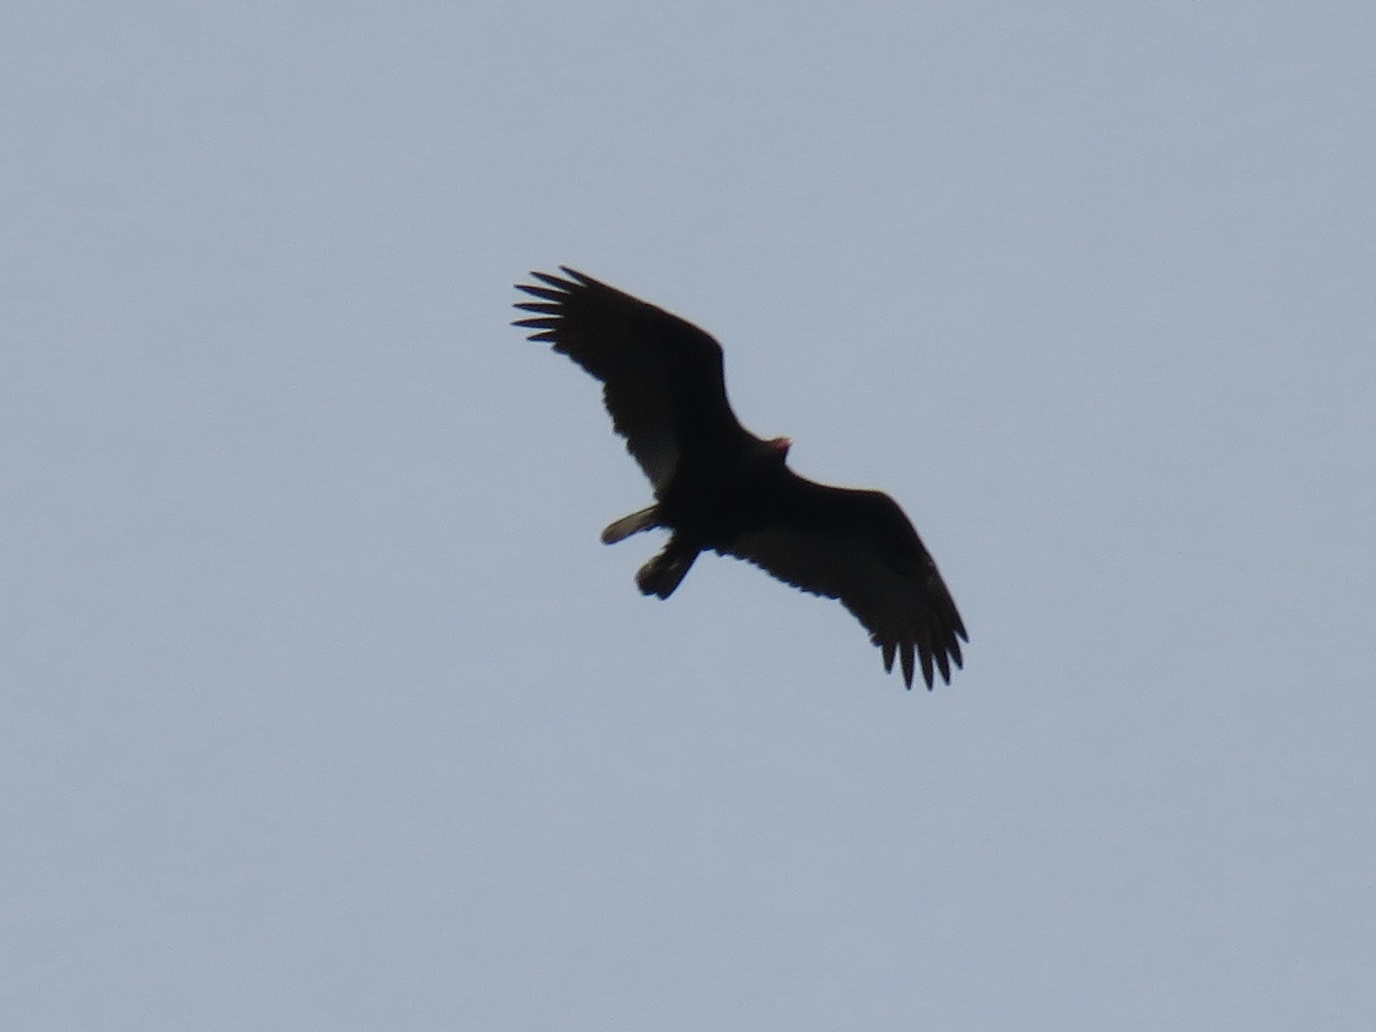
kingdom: Animalia
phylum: Chordata
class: Aves
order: Accipitriformes
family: Cathartidae
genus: Cathartes
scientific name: Cathartes aura
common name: Turkey vulture
